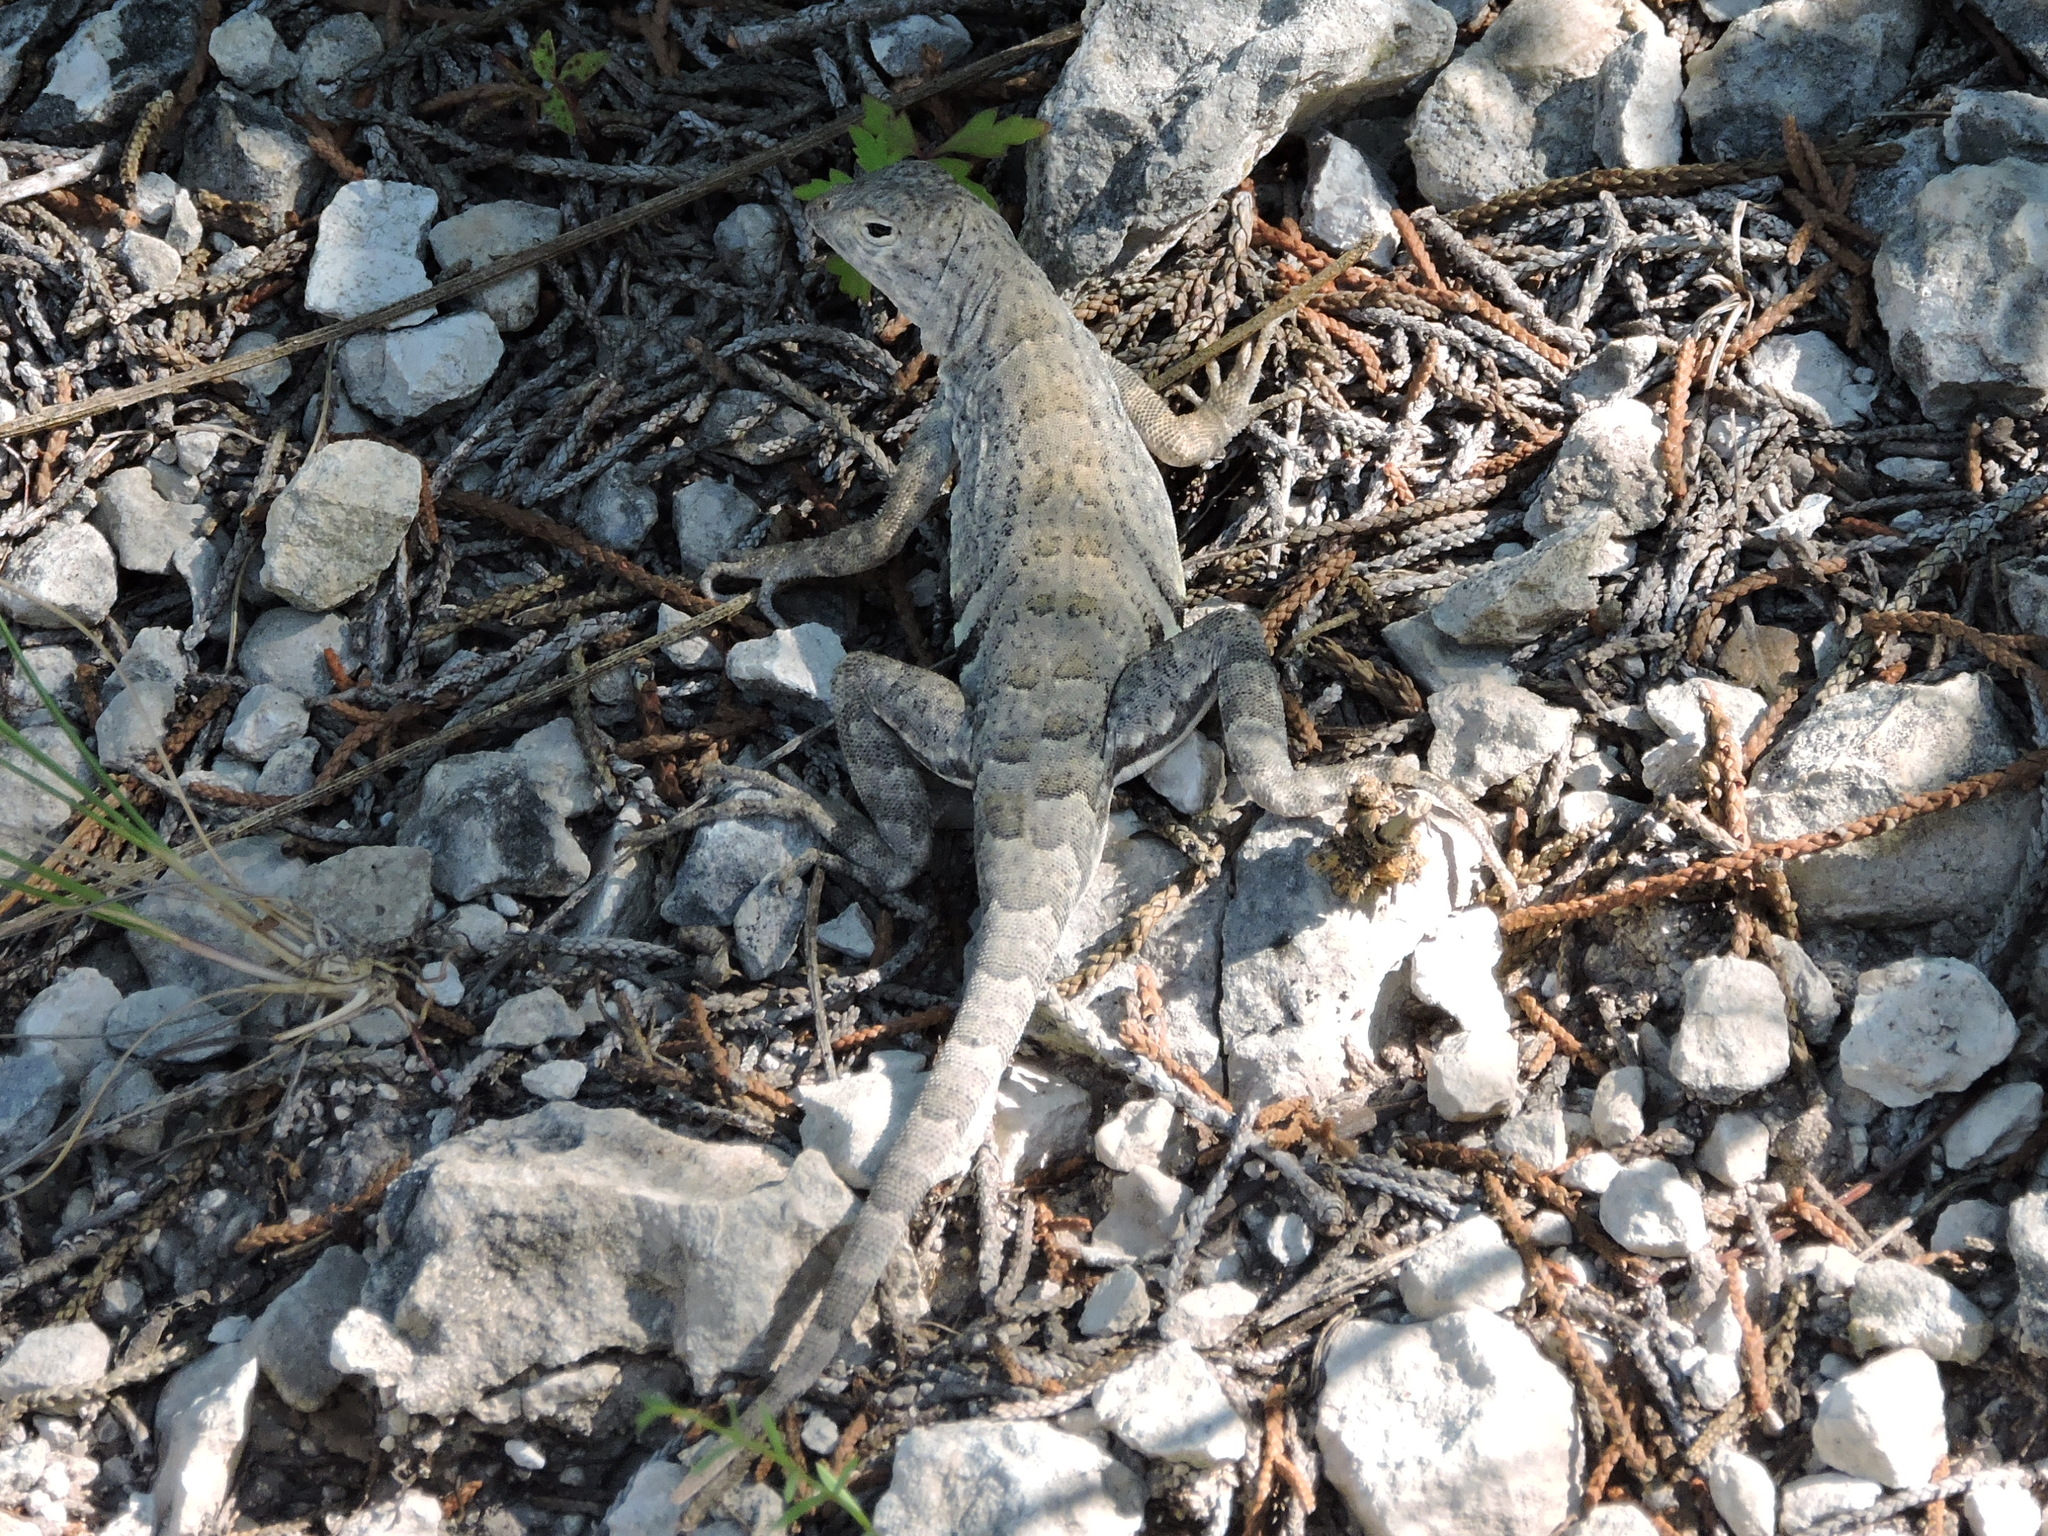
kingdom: Animalia
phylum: Chordata
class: Squamata
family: Phrynosomatidae
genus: Cophosaurus
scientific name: Cophosaurus texanus
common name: Greater earless lizard
